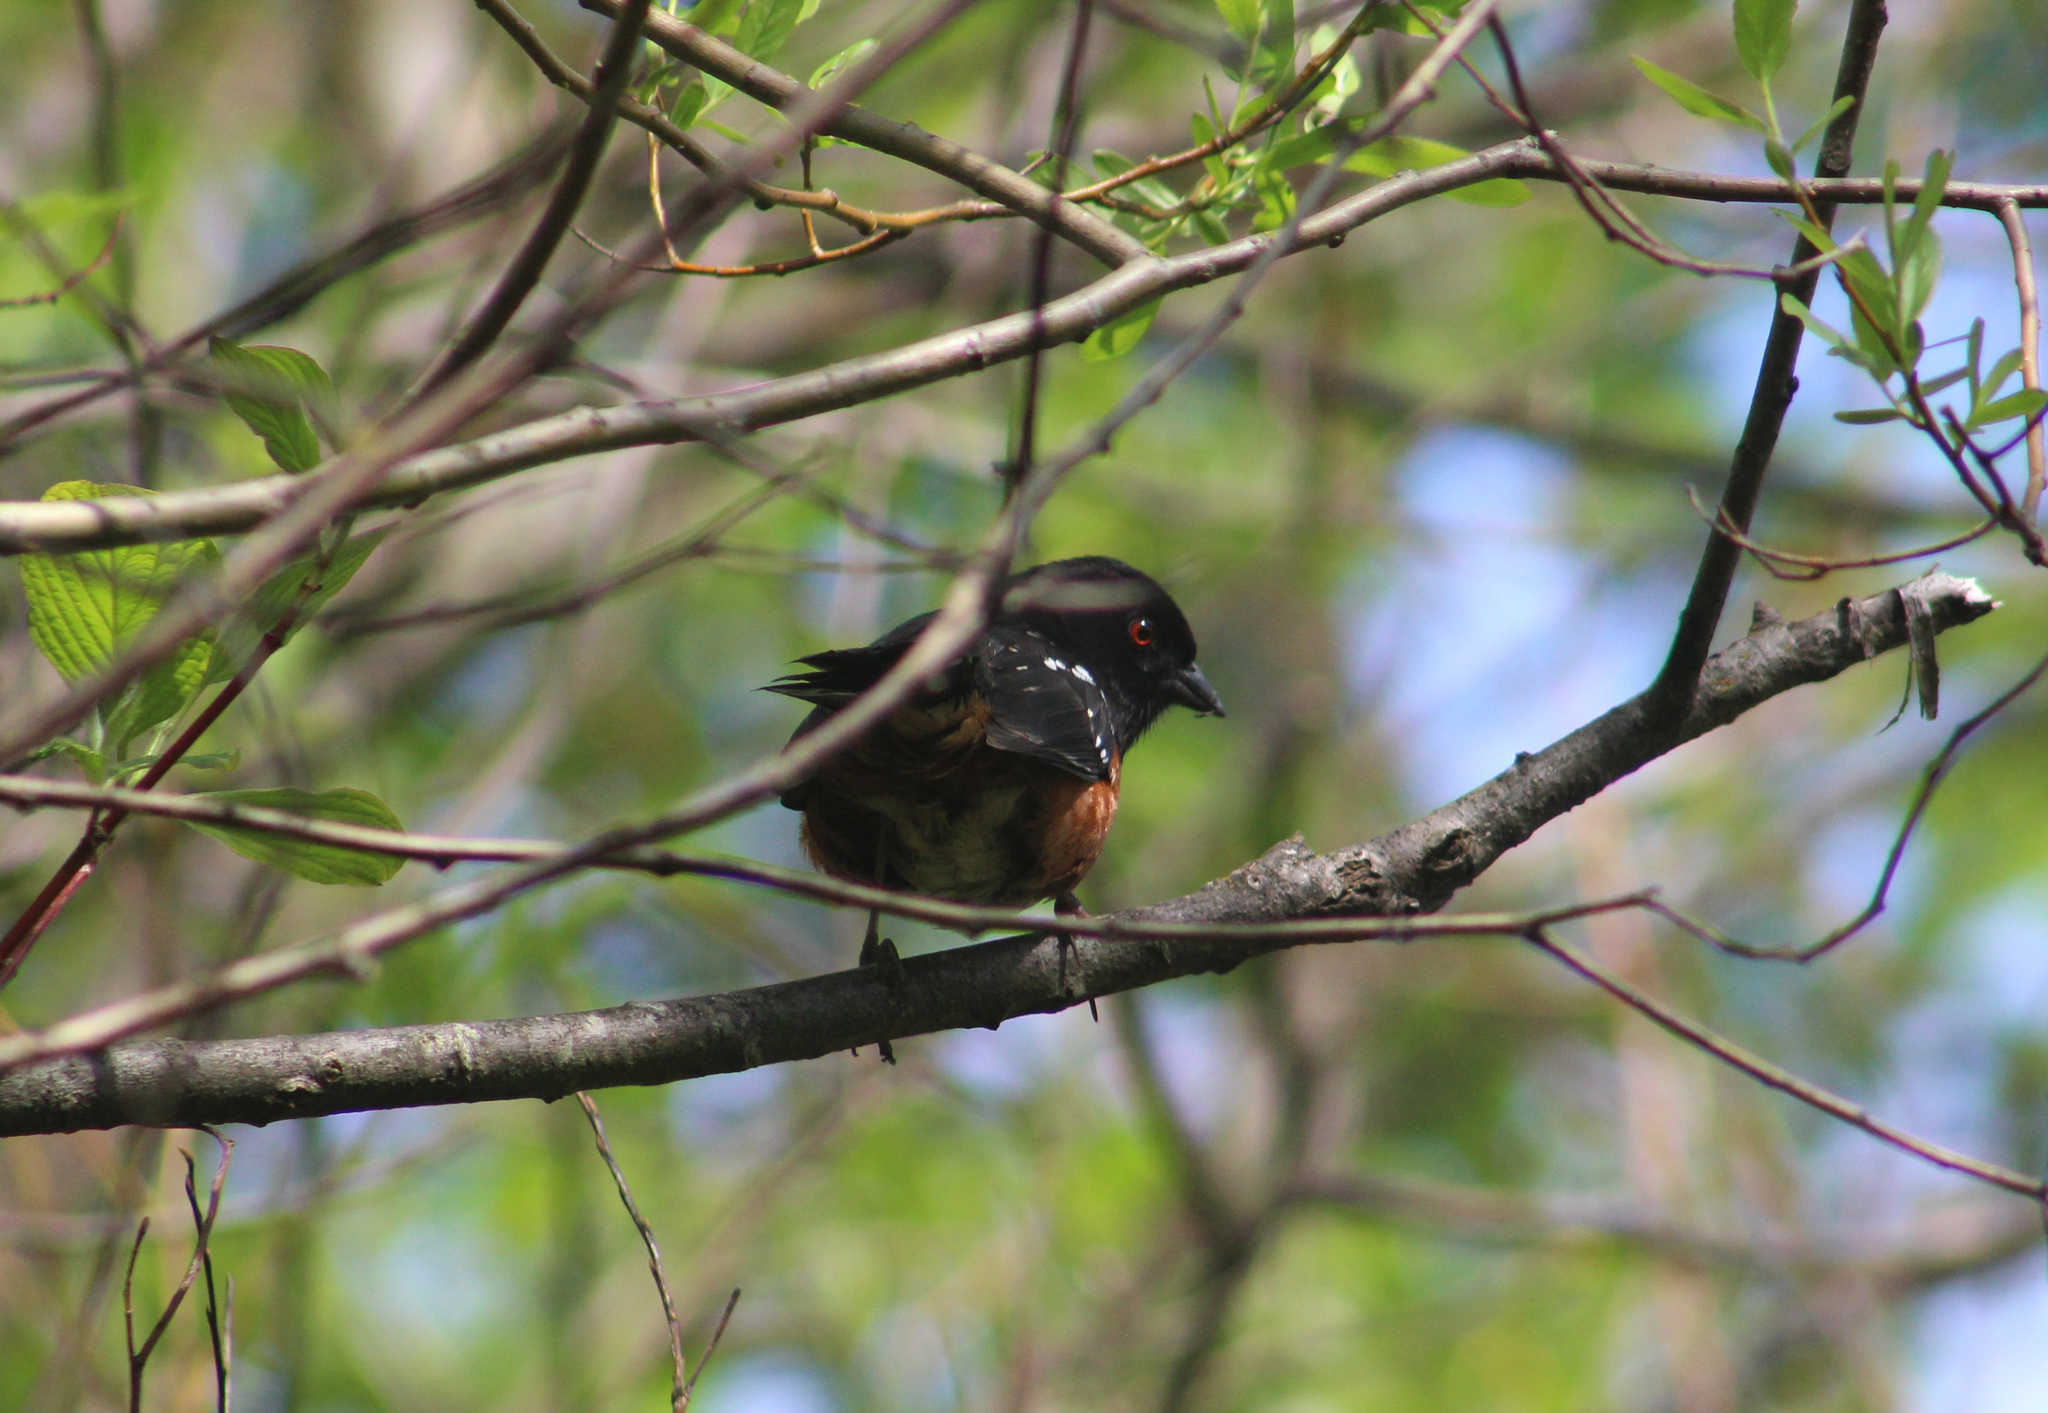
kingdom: Animalia
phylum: Chordata
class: Aves
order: Passeriformes
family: Passerellidae
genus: Pipilo
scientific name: Pipilo maculatus
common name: Spotted towhee
